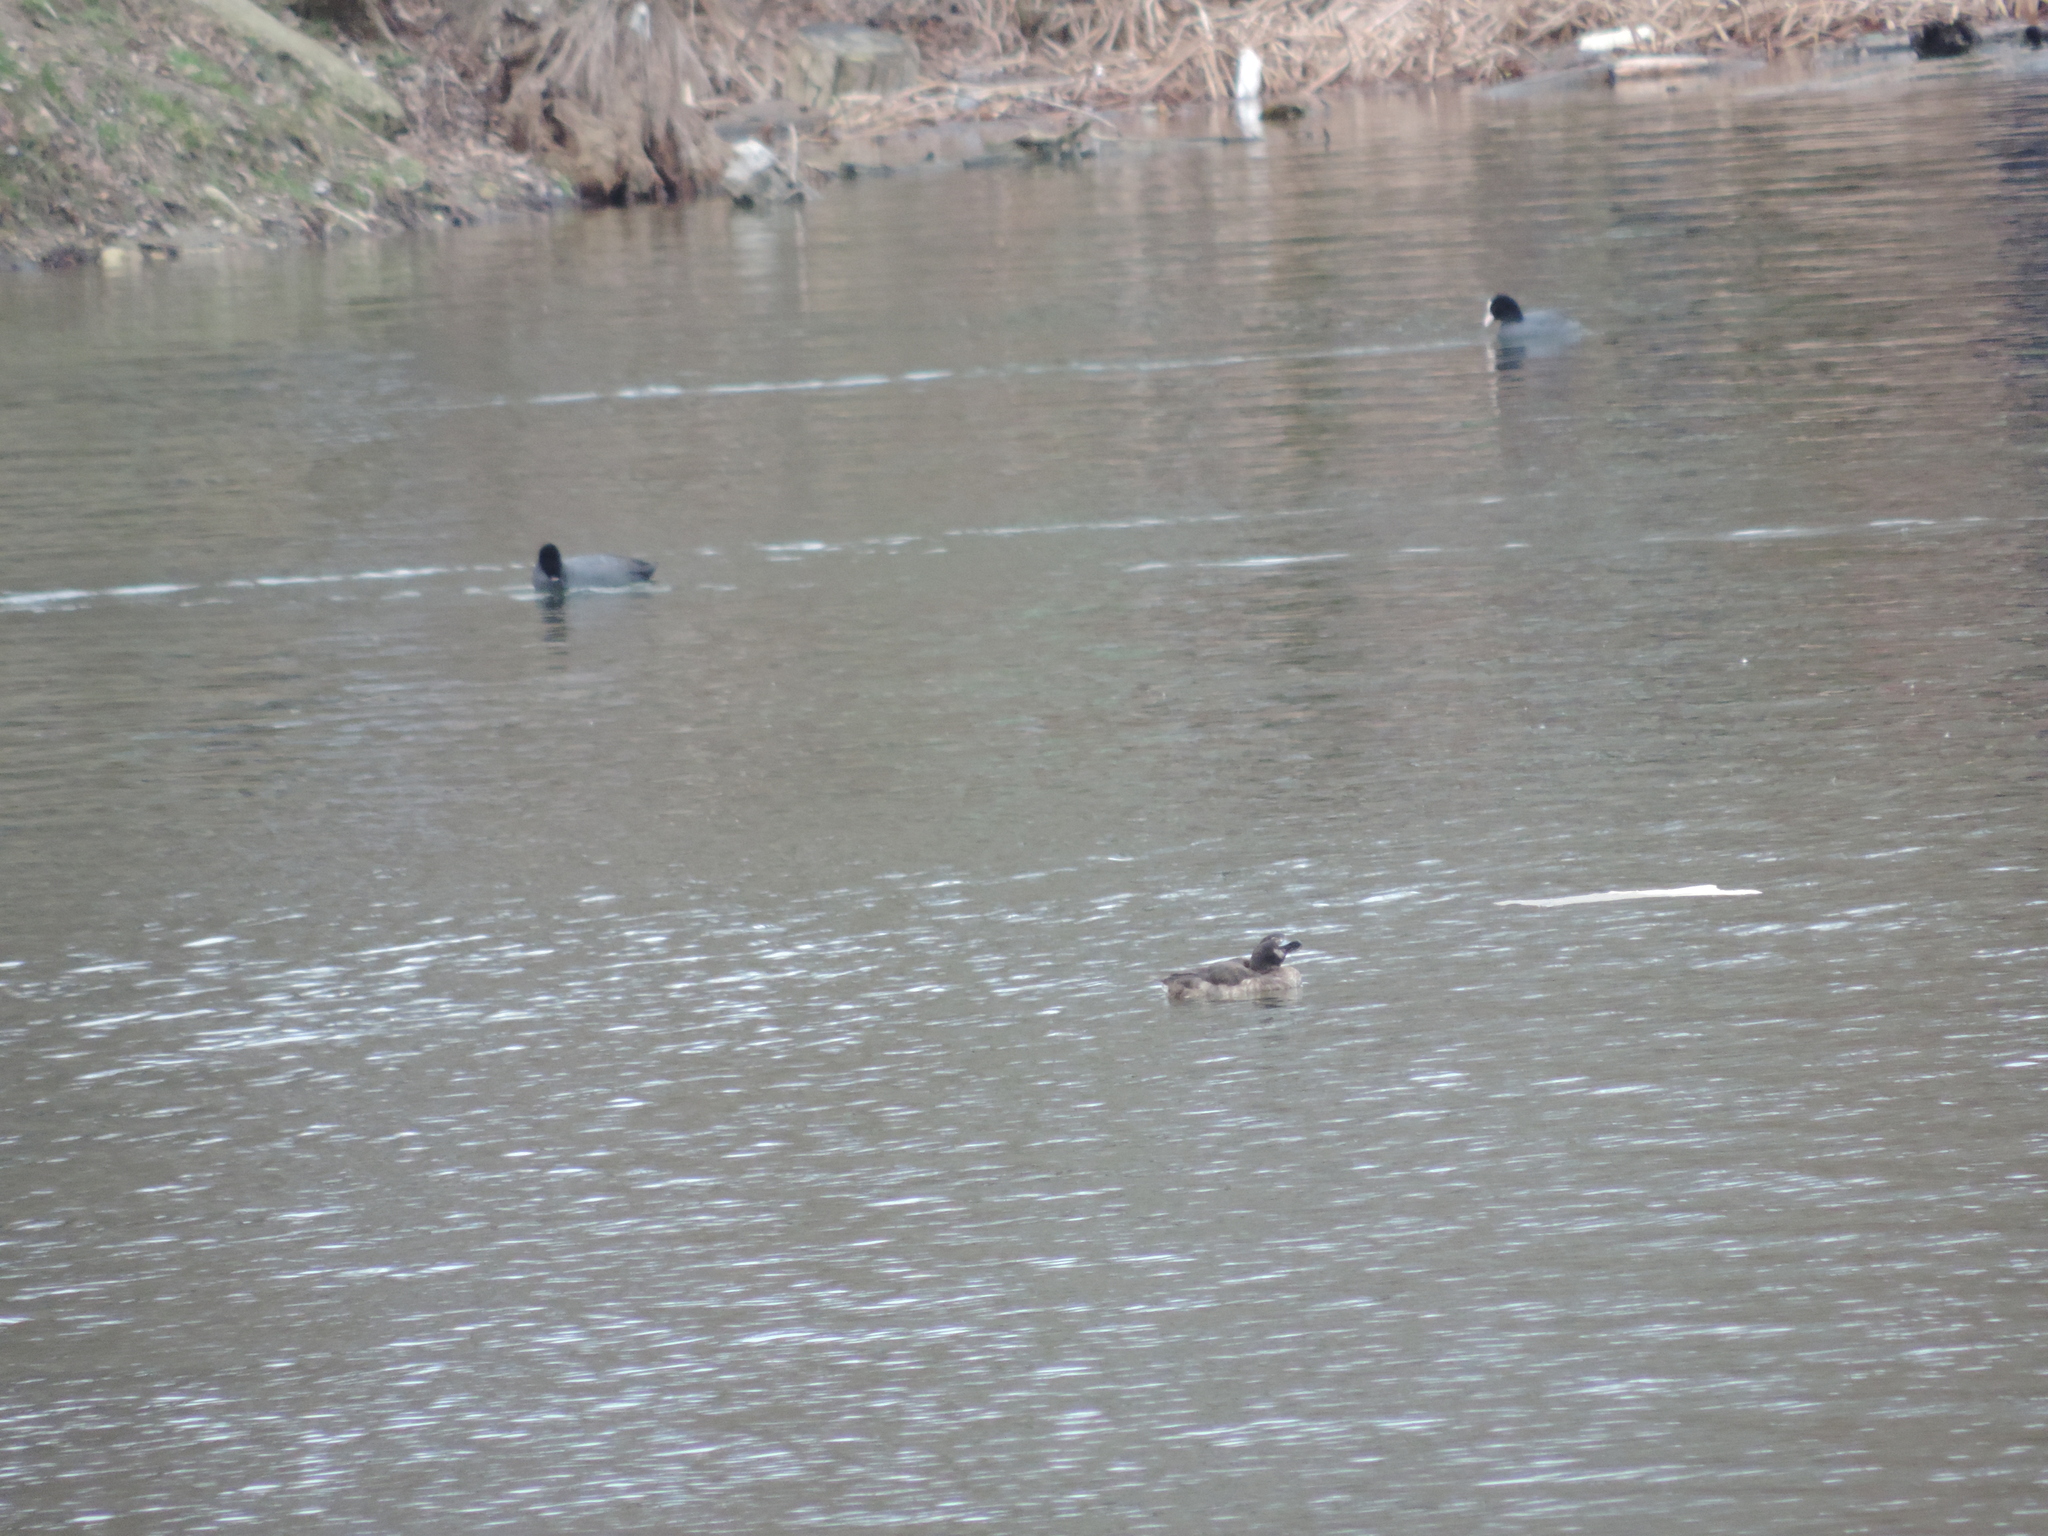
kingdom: Animalia
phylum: Chordata
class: Aves
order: Anseriformes
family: Anatidae
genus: Aythya
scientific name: Aythya fuligula
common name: Tufted duck
